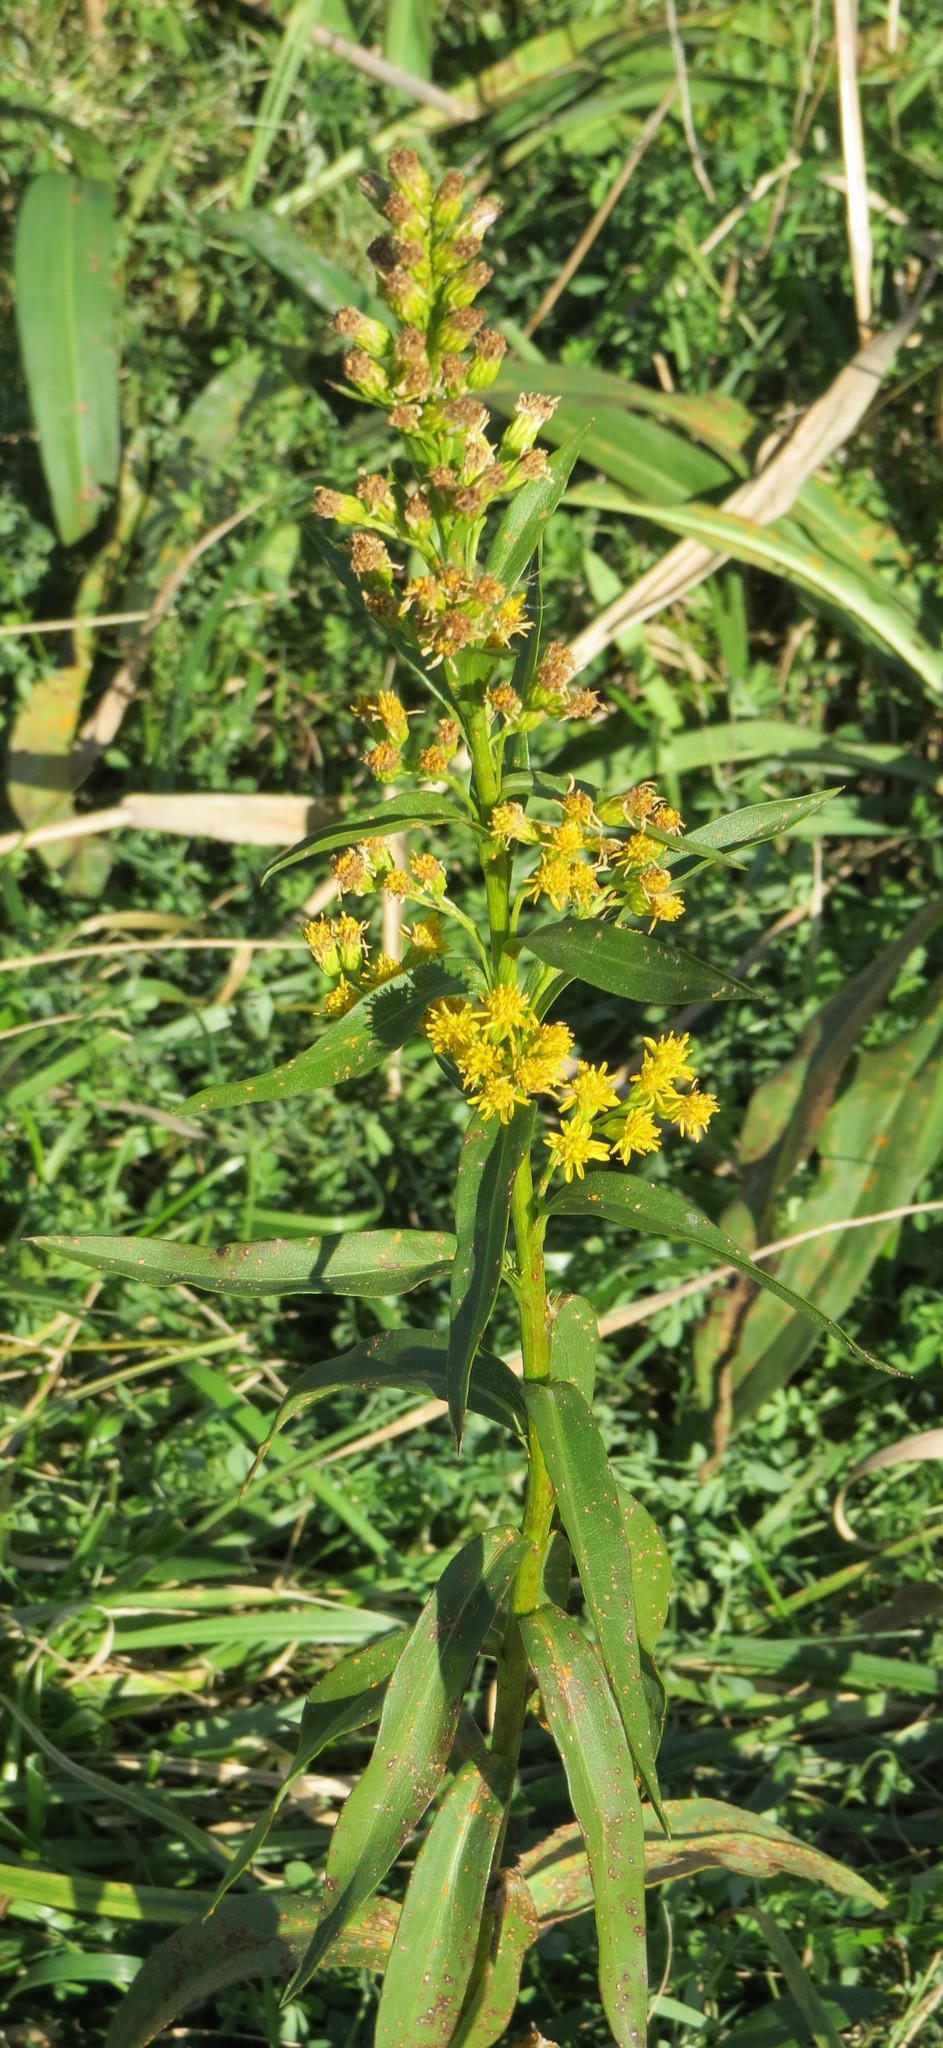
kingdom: Plantae
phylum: Tracheophyta
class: Magnoliopsida
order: Asterales
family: Asteraceae
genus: Solidago
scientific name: Solidago sempervirens
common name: Salt-marsh goldenrod
